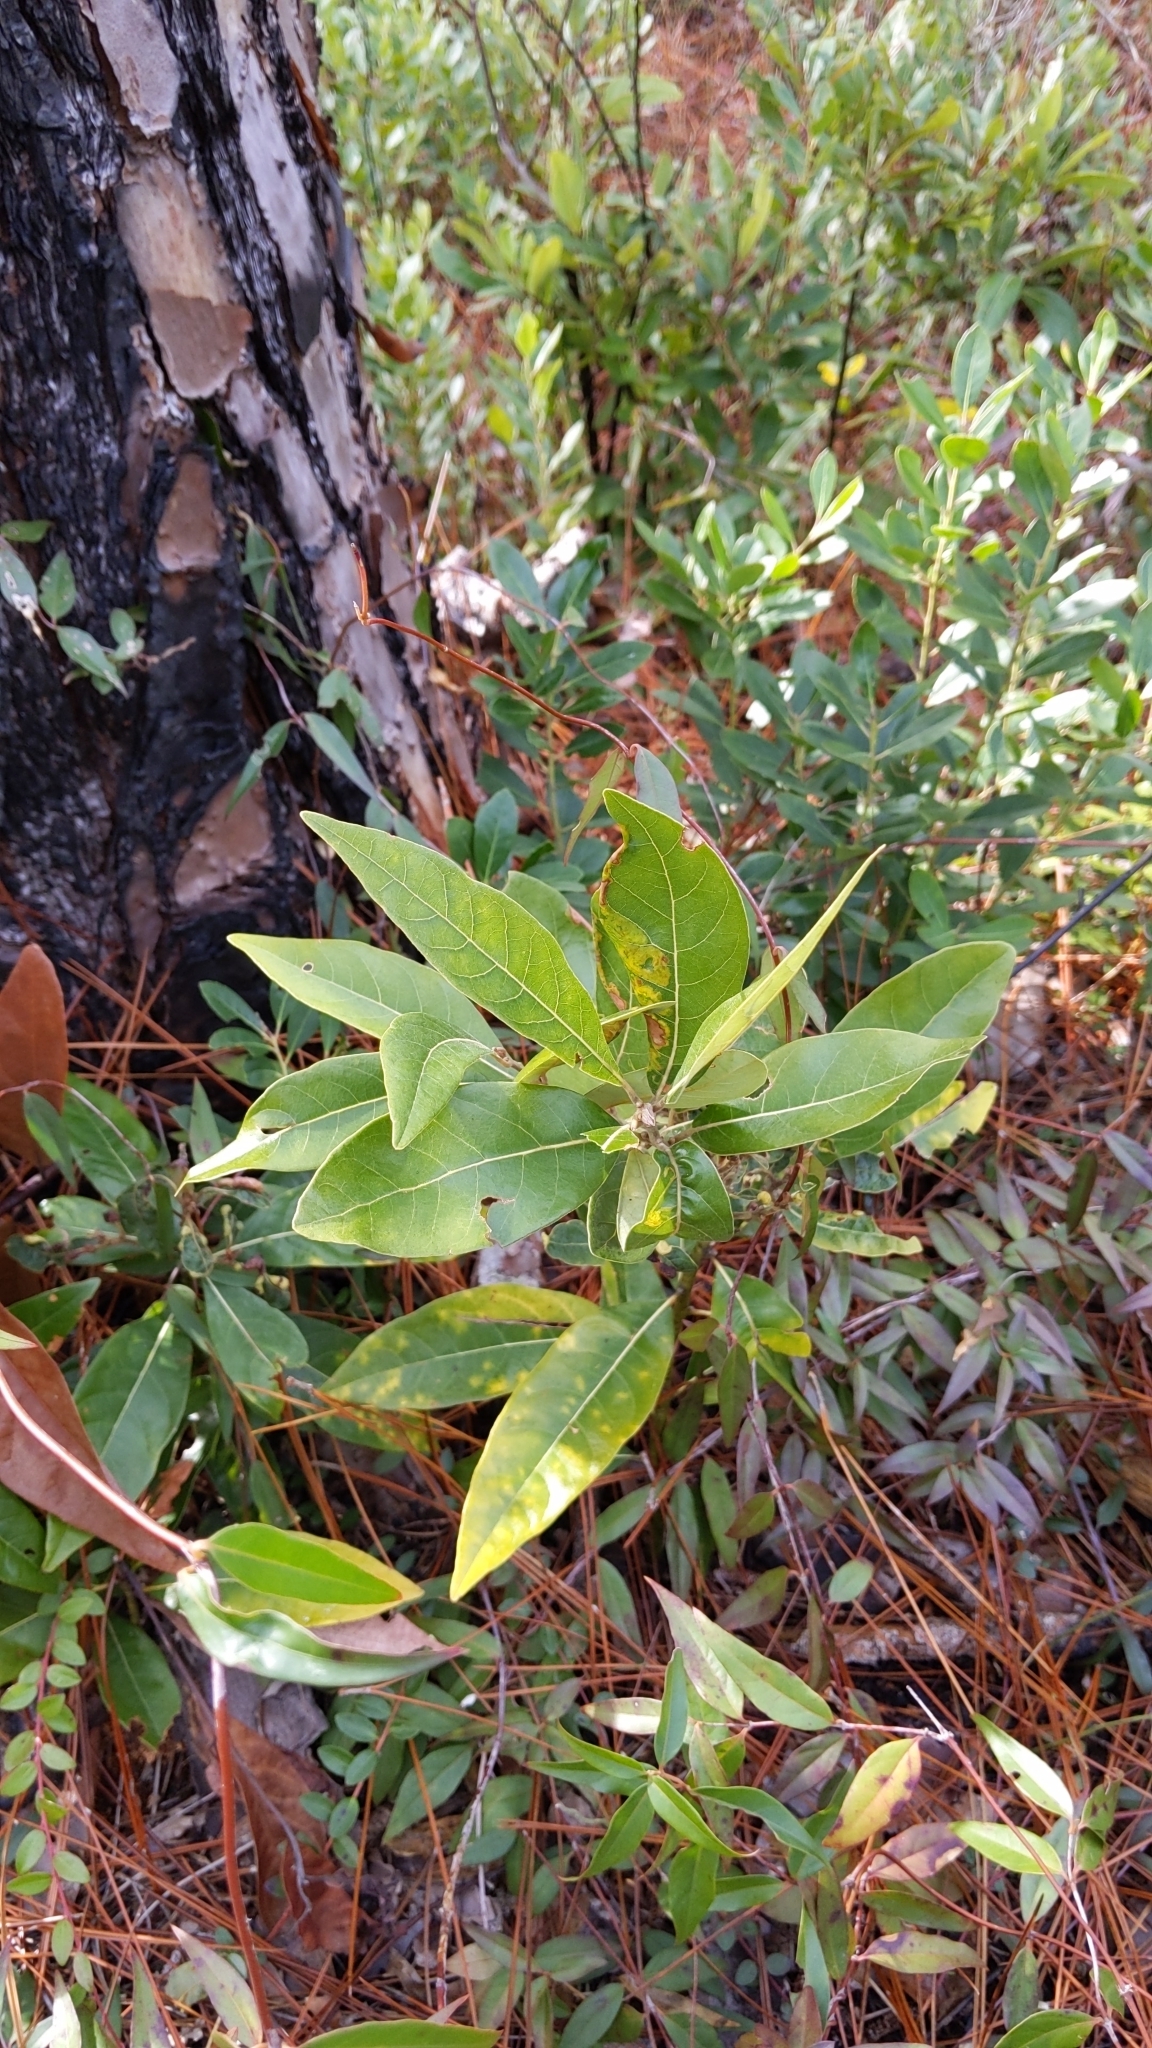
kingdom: Plantae
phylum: Tracheophyta
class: Magnoliopsida
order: Laurales
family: Lauraceae
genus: Persea
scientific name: Persea palustris
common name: Swampbay
